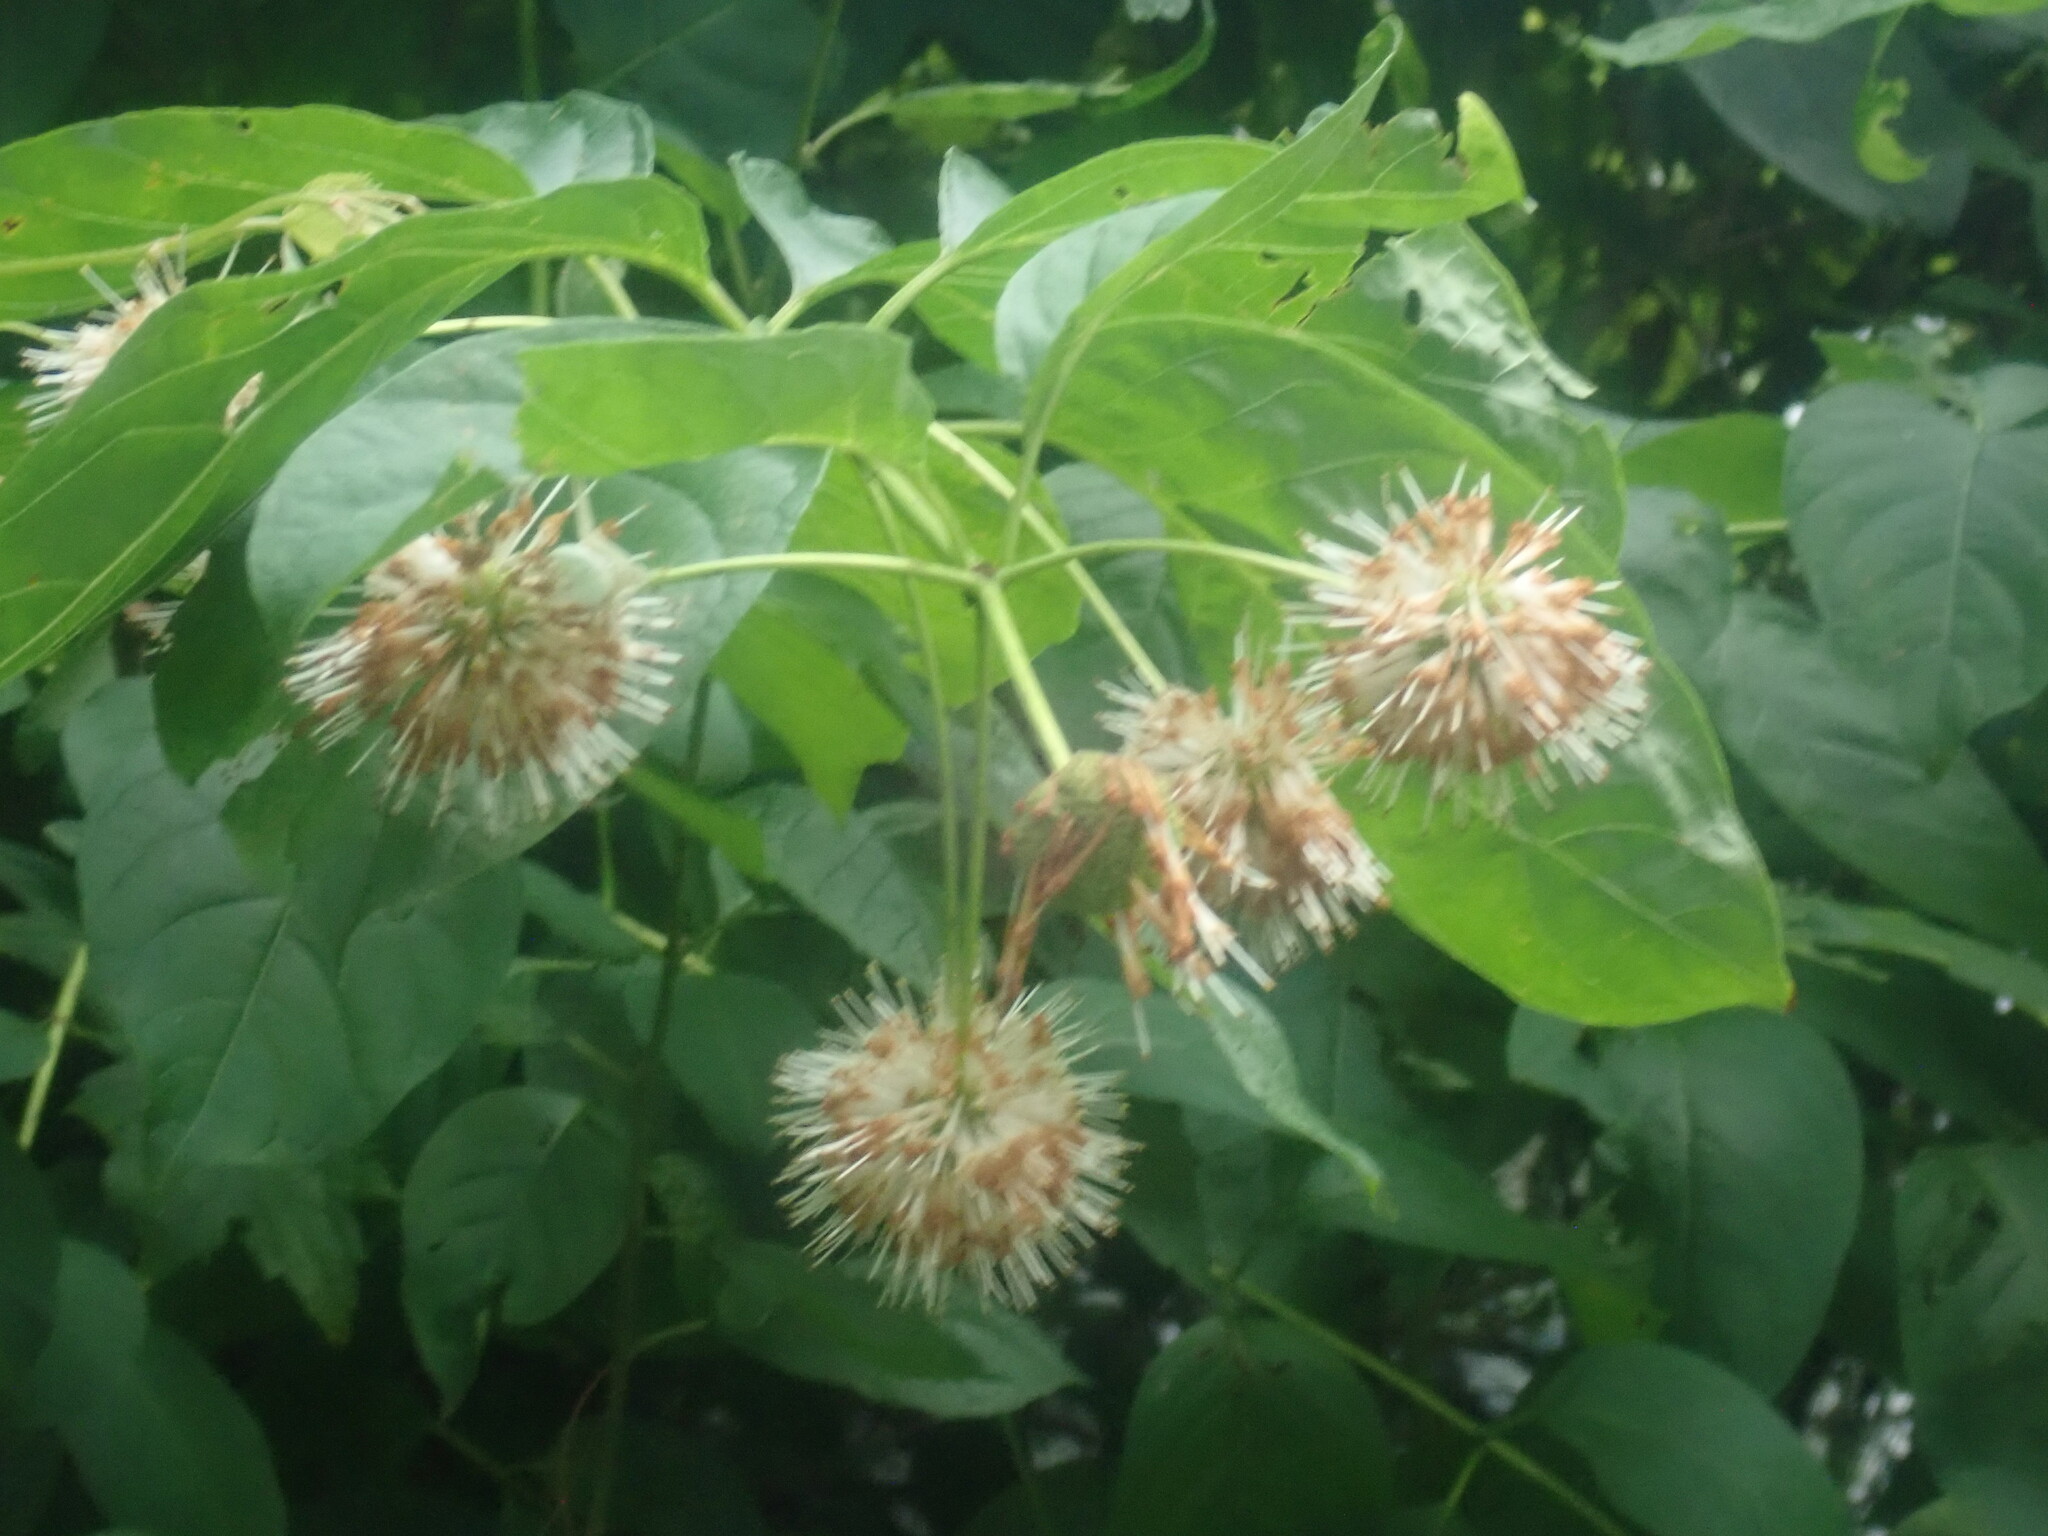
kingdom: Plantae
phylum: Tracheophyta
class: Magnoliopsida
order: Gentianales
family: Rubiaceae
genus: Cephalanthus
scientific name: Cephalanthus occidentalis
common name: Button-willow
